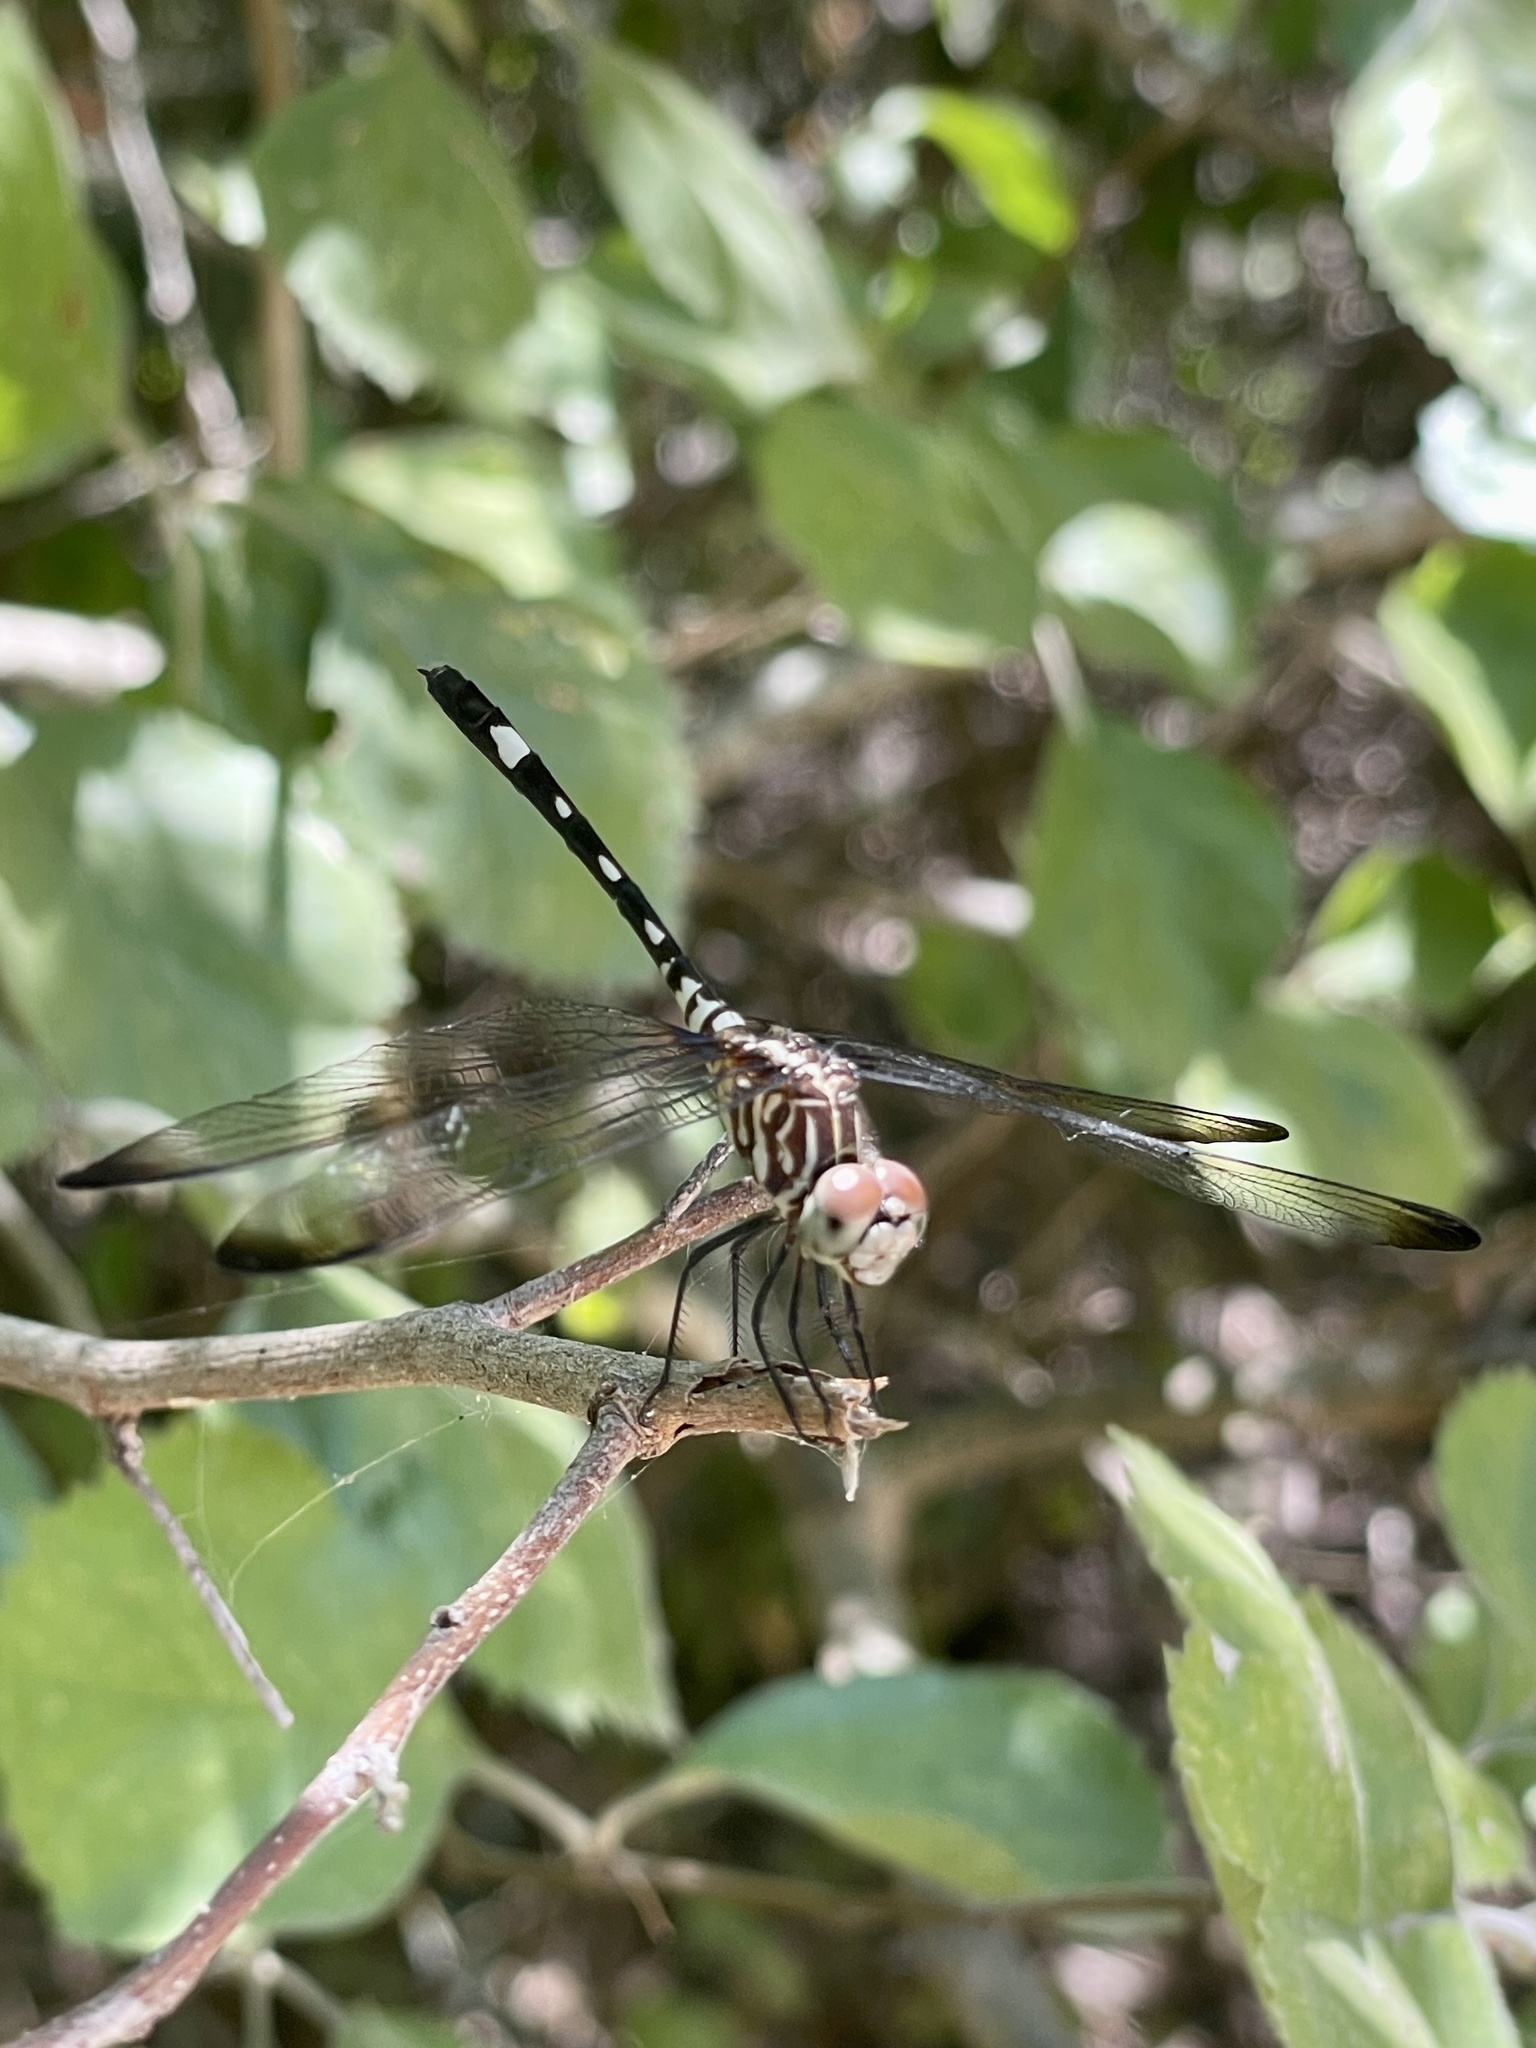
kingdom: Animalia
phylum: Arthropoda
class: Insecta
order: Odonata
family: Libellulidae
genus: Dythemis
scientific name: Dythemis velox
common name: Swift setwing
